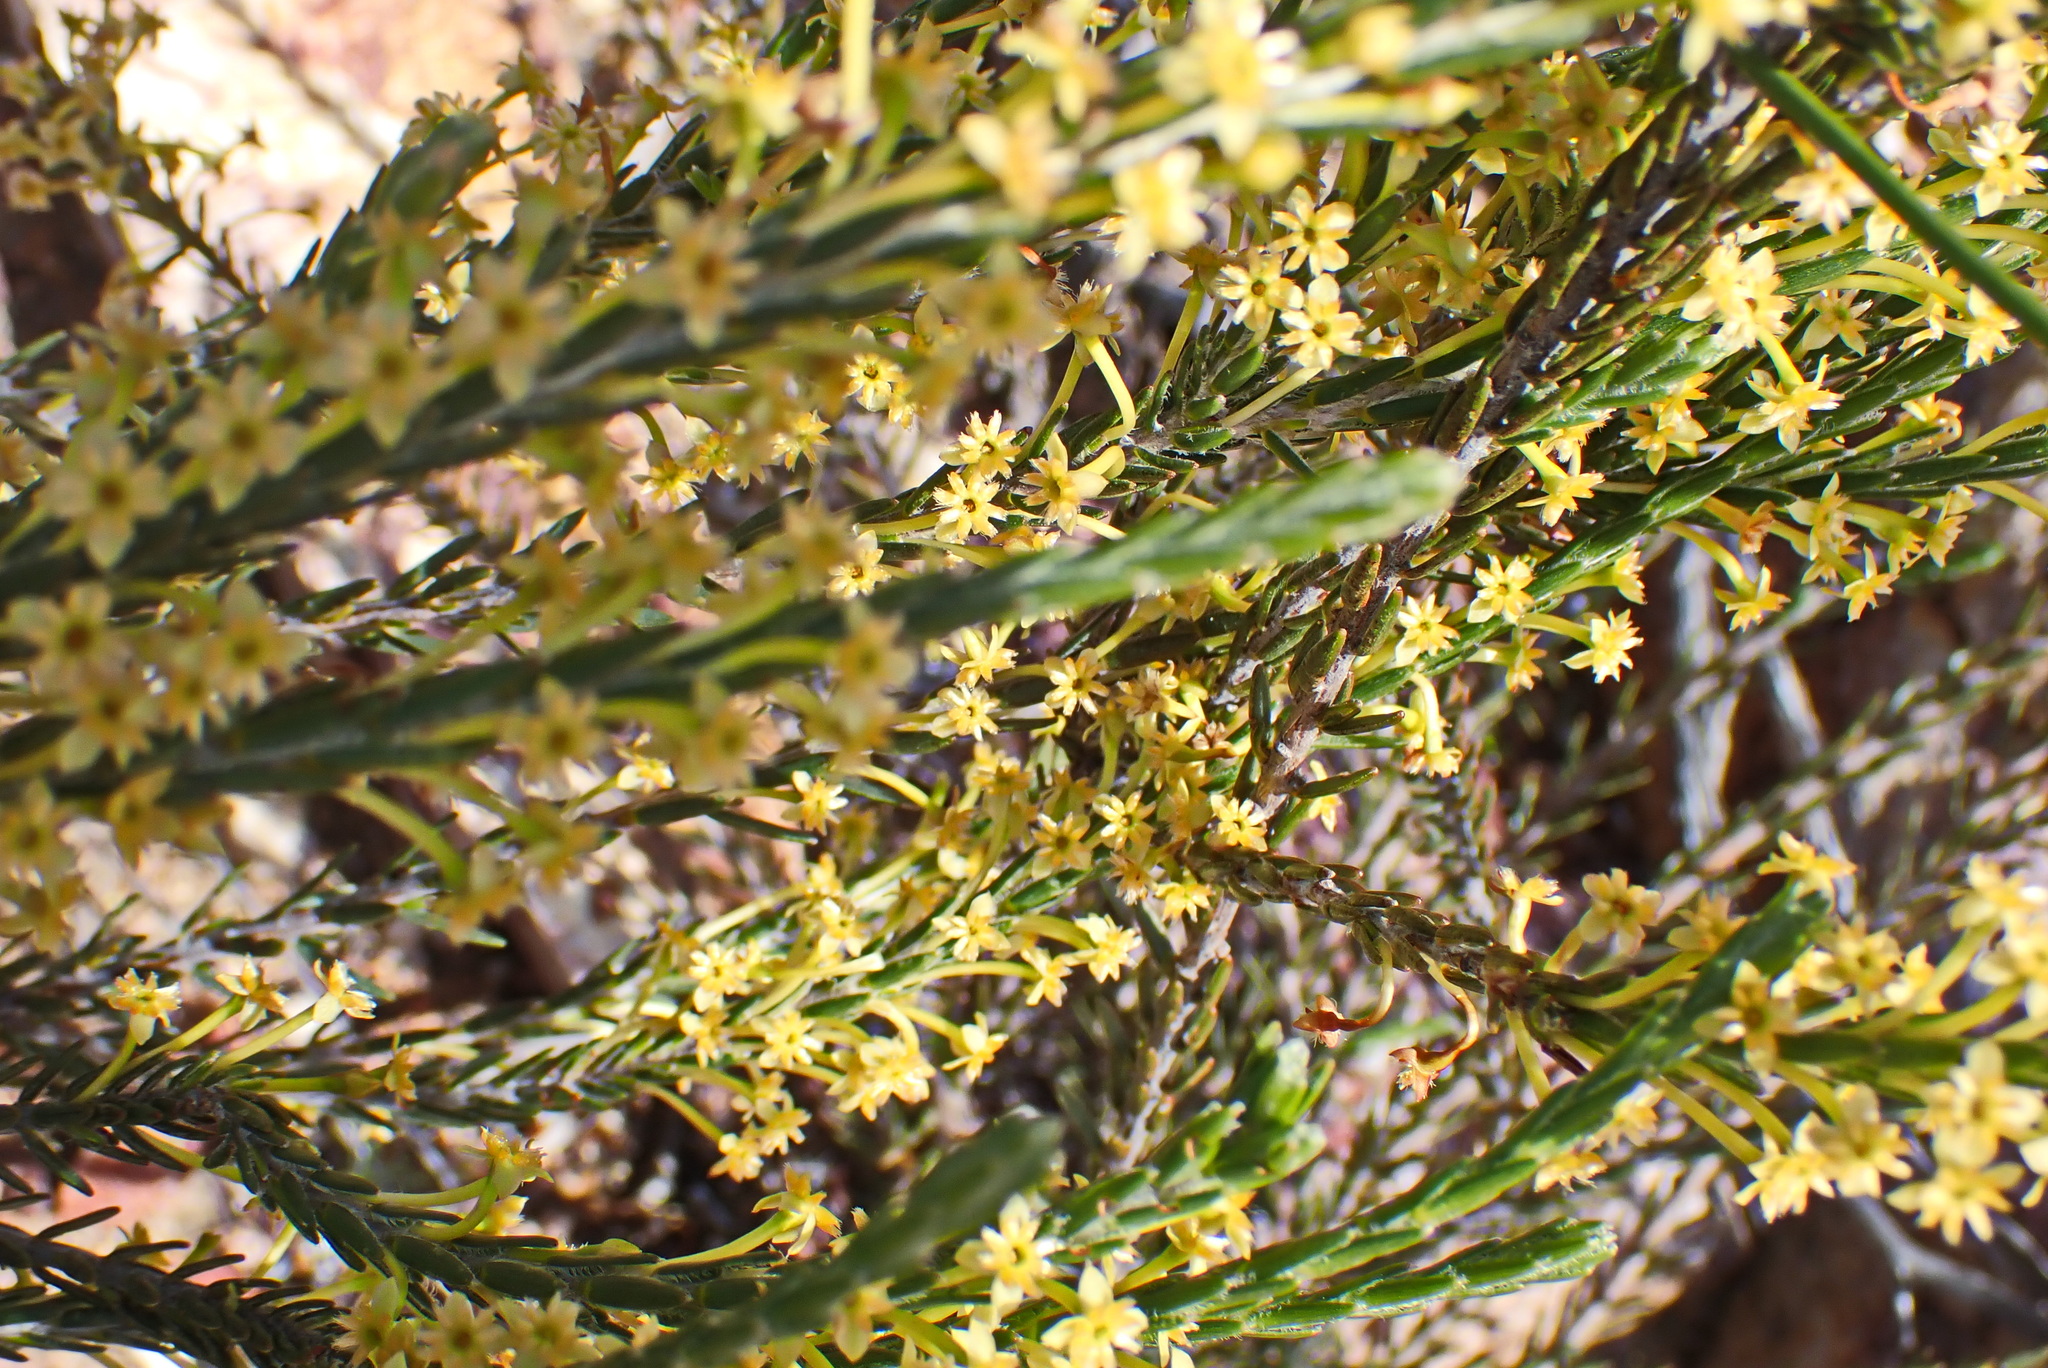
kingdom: Plantae
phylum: Tracheophyta
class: Magnoliopsida
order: Malvales
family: Thymelaeaceae
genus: Struthiola
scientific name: Struthiola eckloniana
